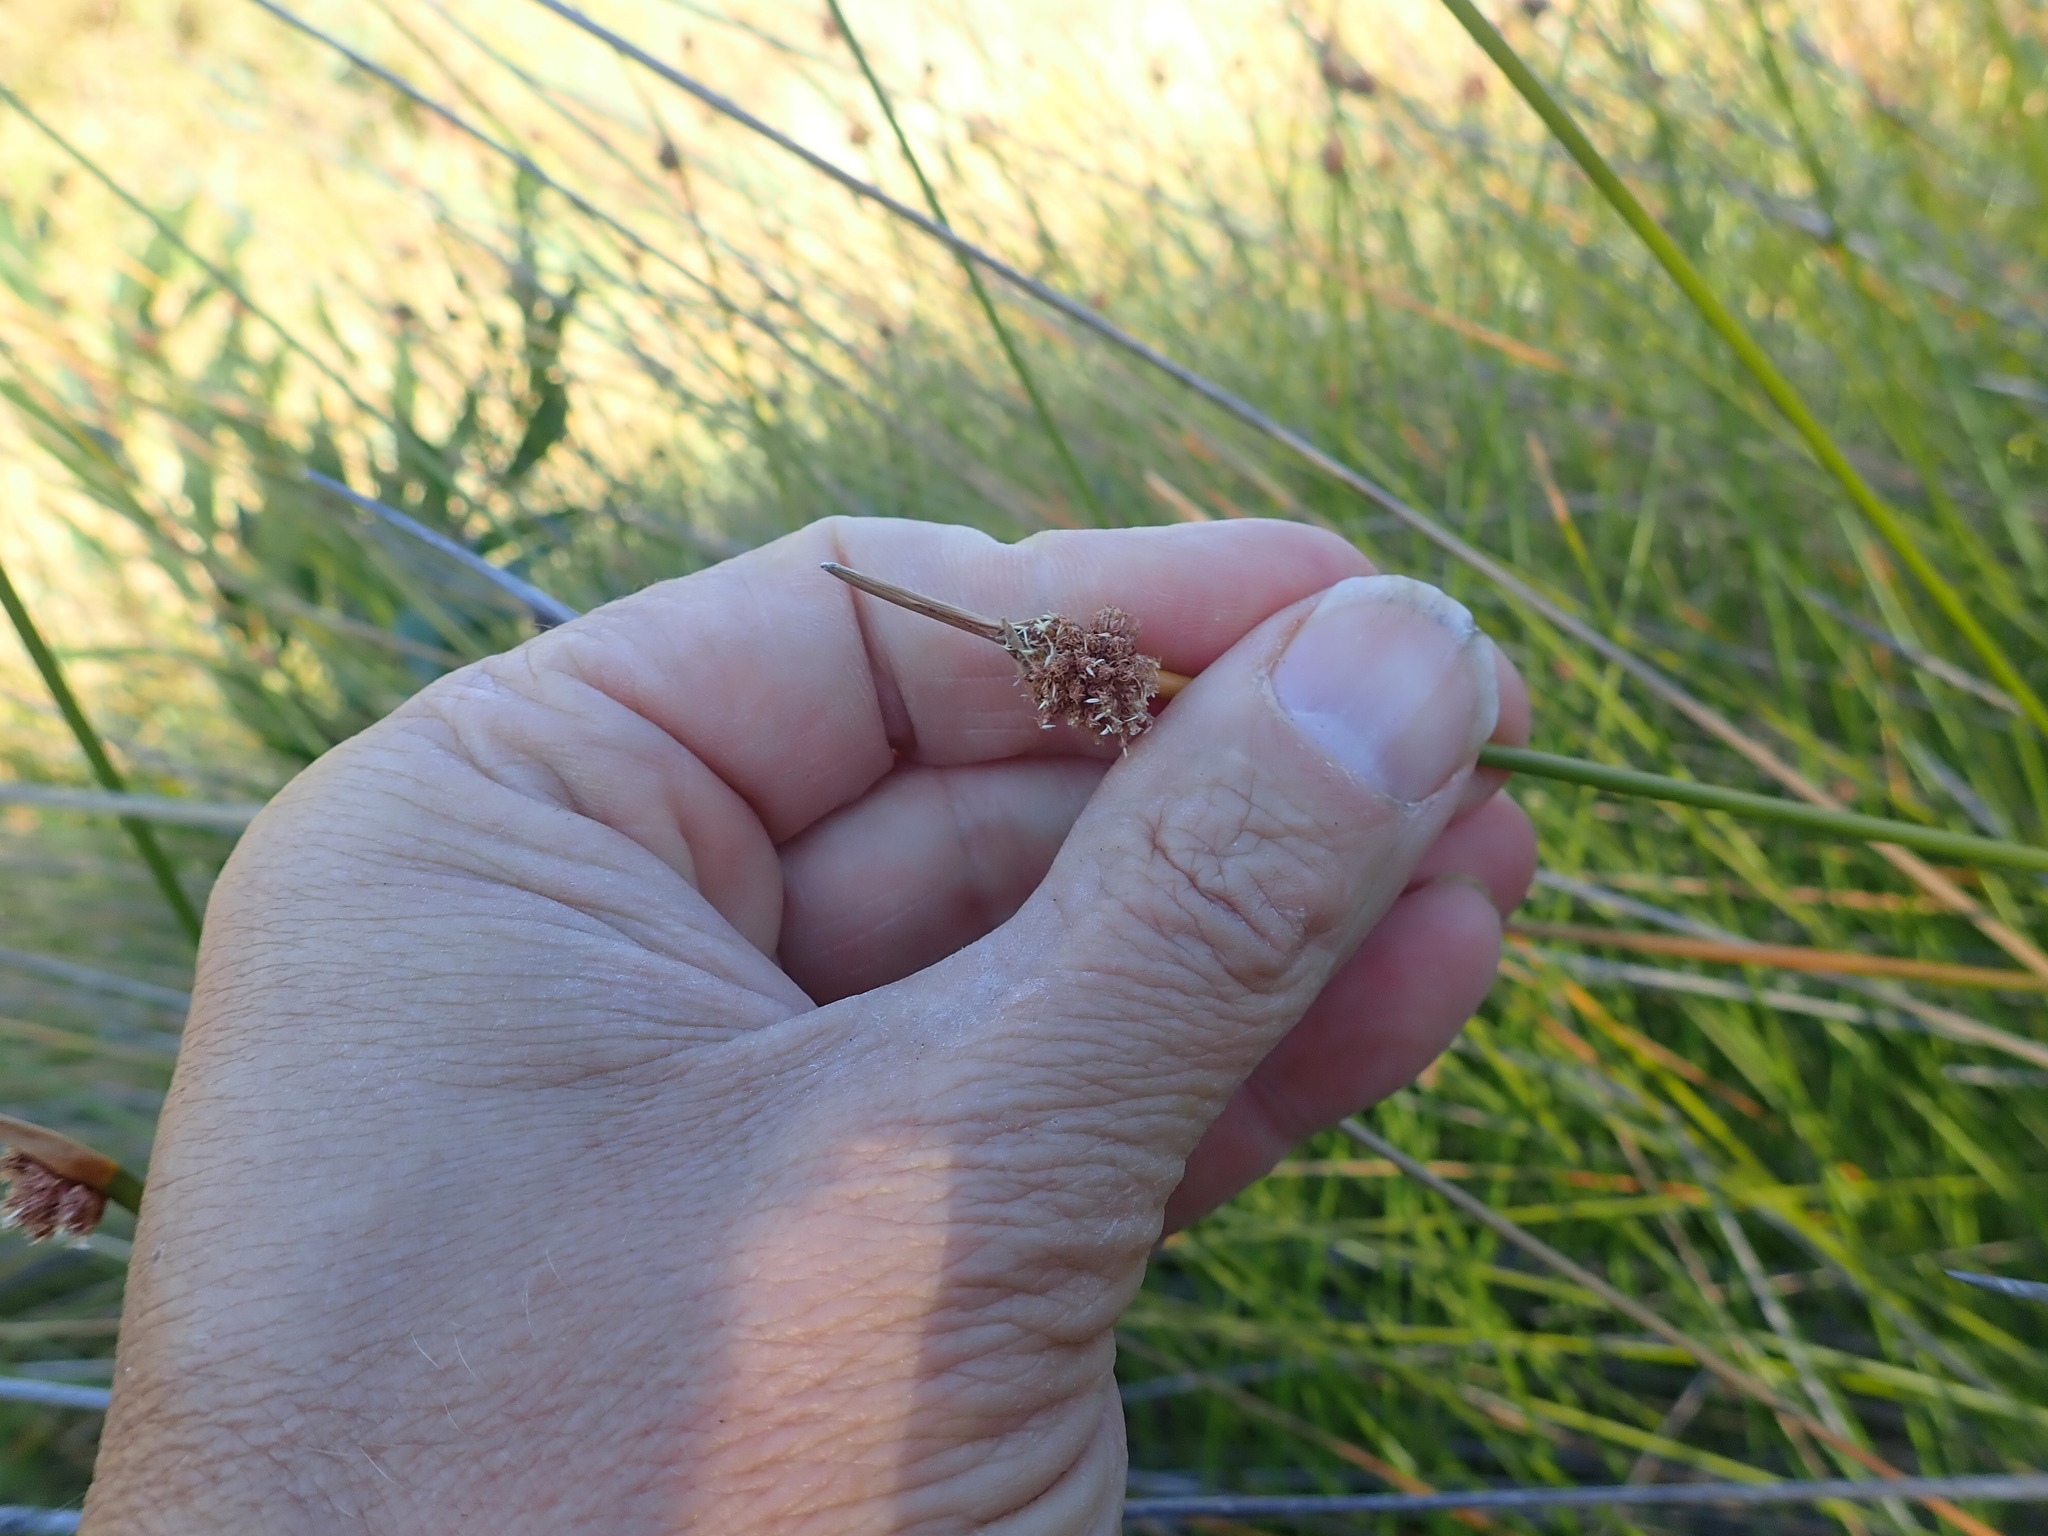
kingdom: Plantae
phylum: Tracheophyta
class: Liliopsida
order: Poales
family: Cyperaceae
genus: Ficinia
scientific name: Ficinia nodosa
